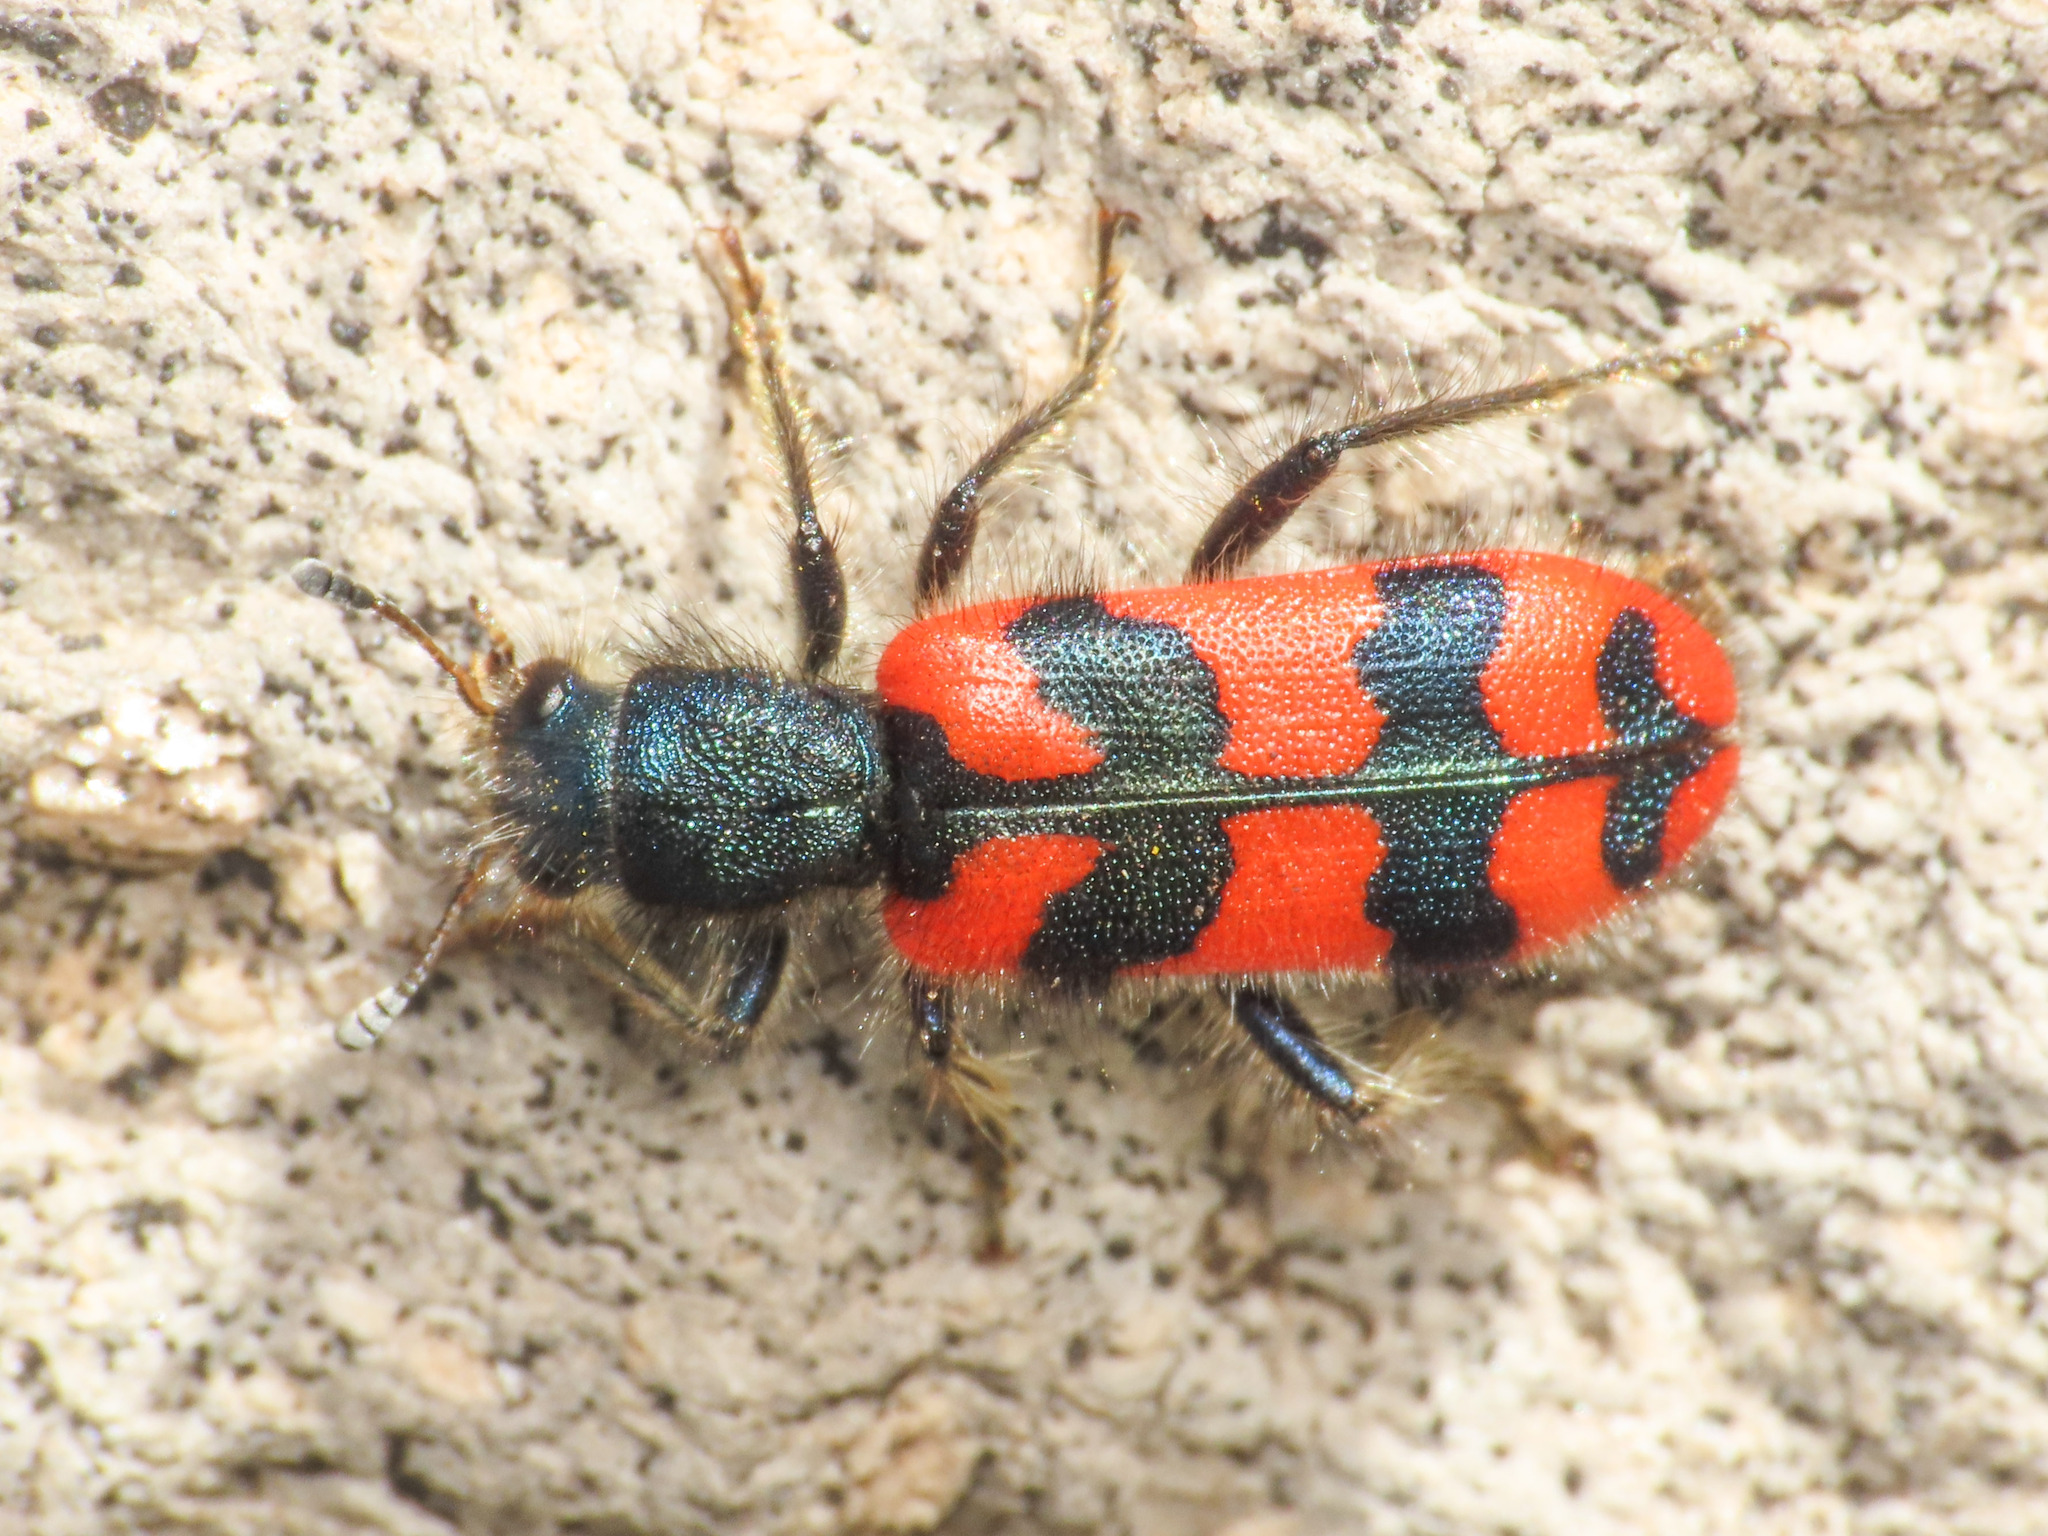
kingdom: Animalia
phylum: Arthropoda
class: Insecta
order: Coleoptera
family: Cleridae
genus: Trichodes
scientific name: Trichodes alvearius
